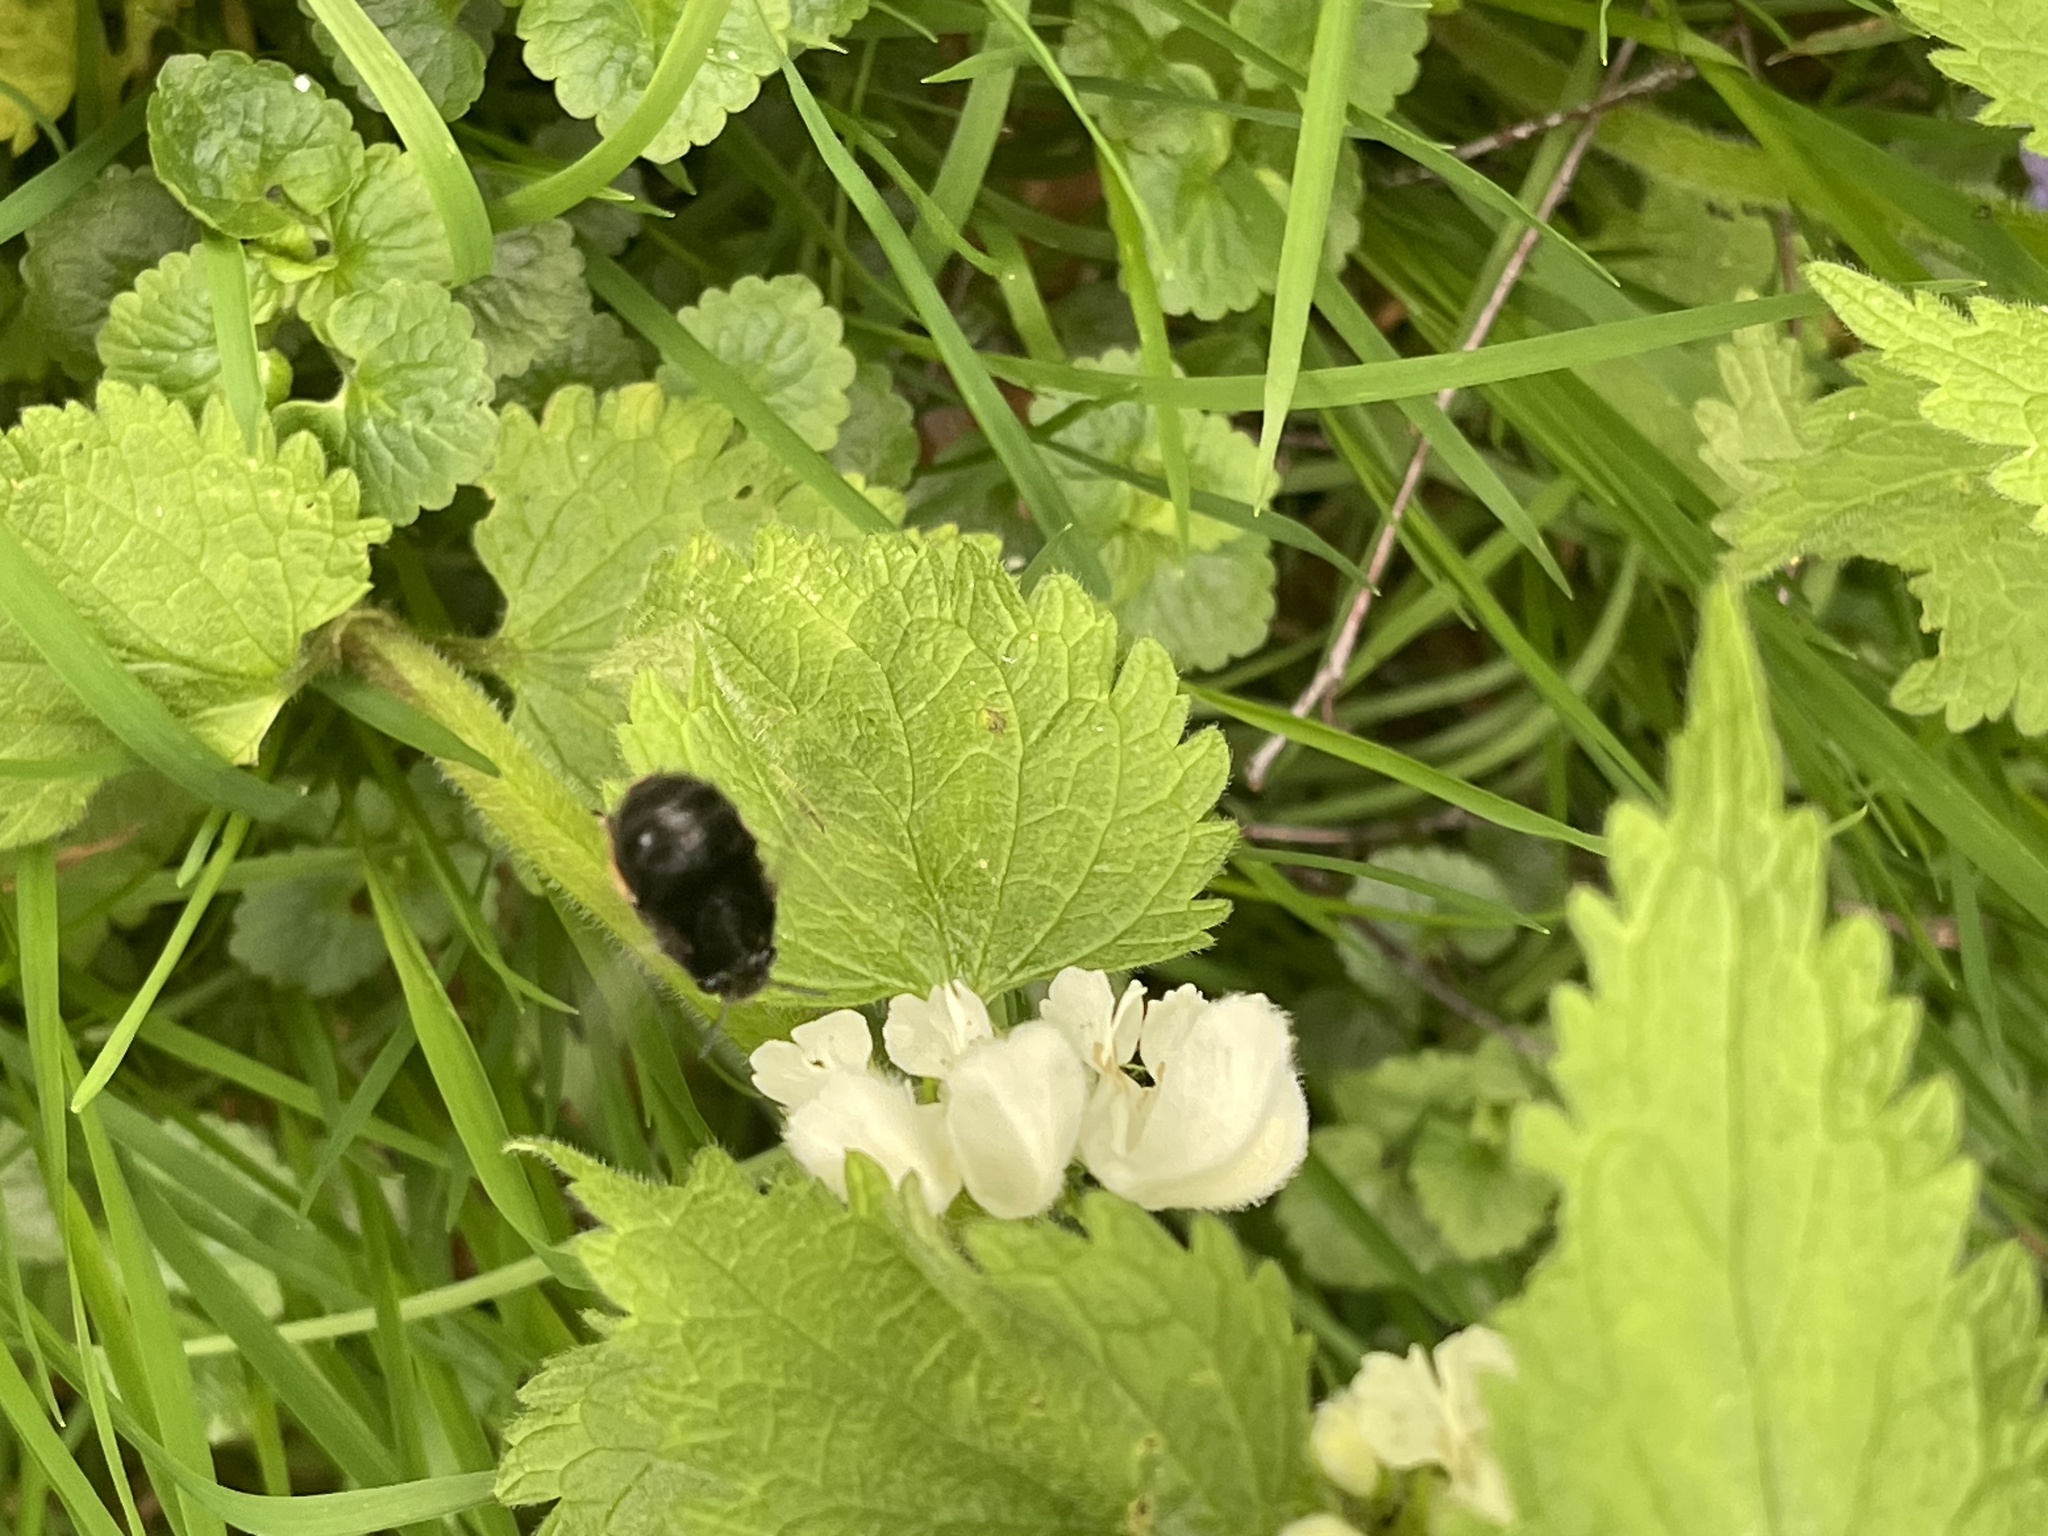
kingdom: Animalia
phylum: Arthropoda
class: Insecta
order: Hymenoptera
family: Apidae
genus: Anthophora
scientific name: Anthophora plumipes
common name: Hairy-footed flower bee
